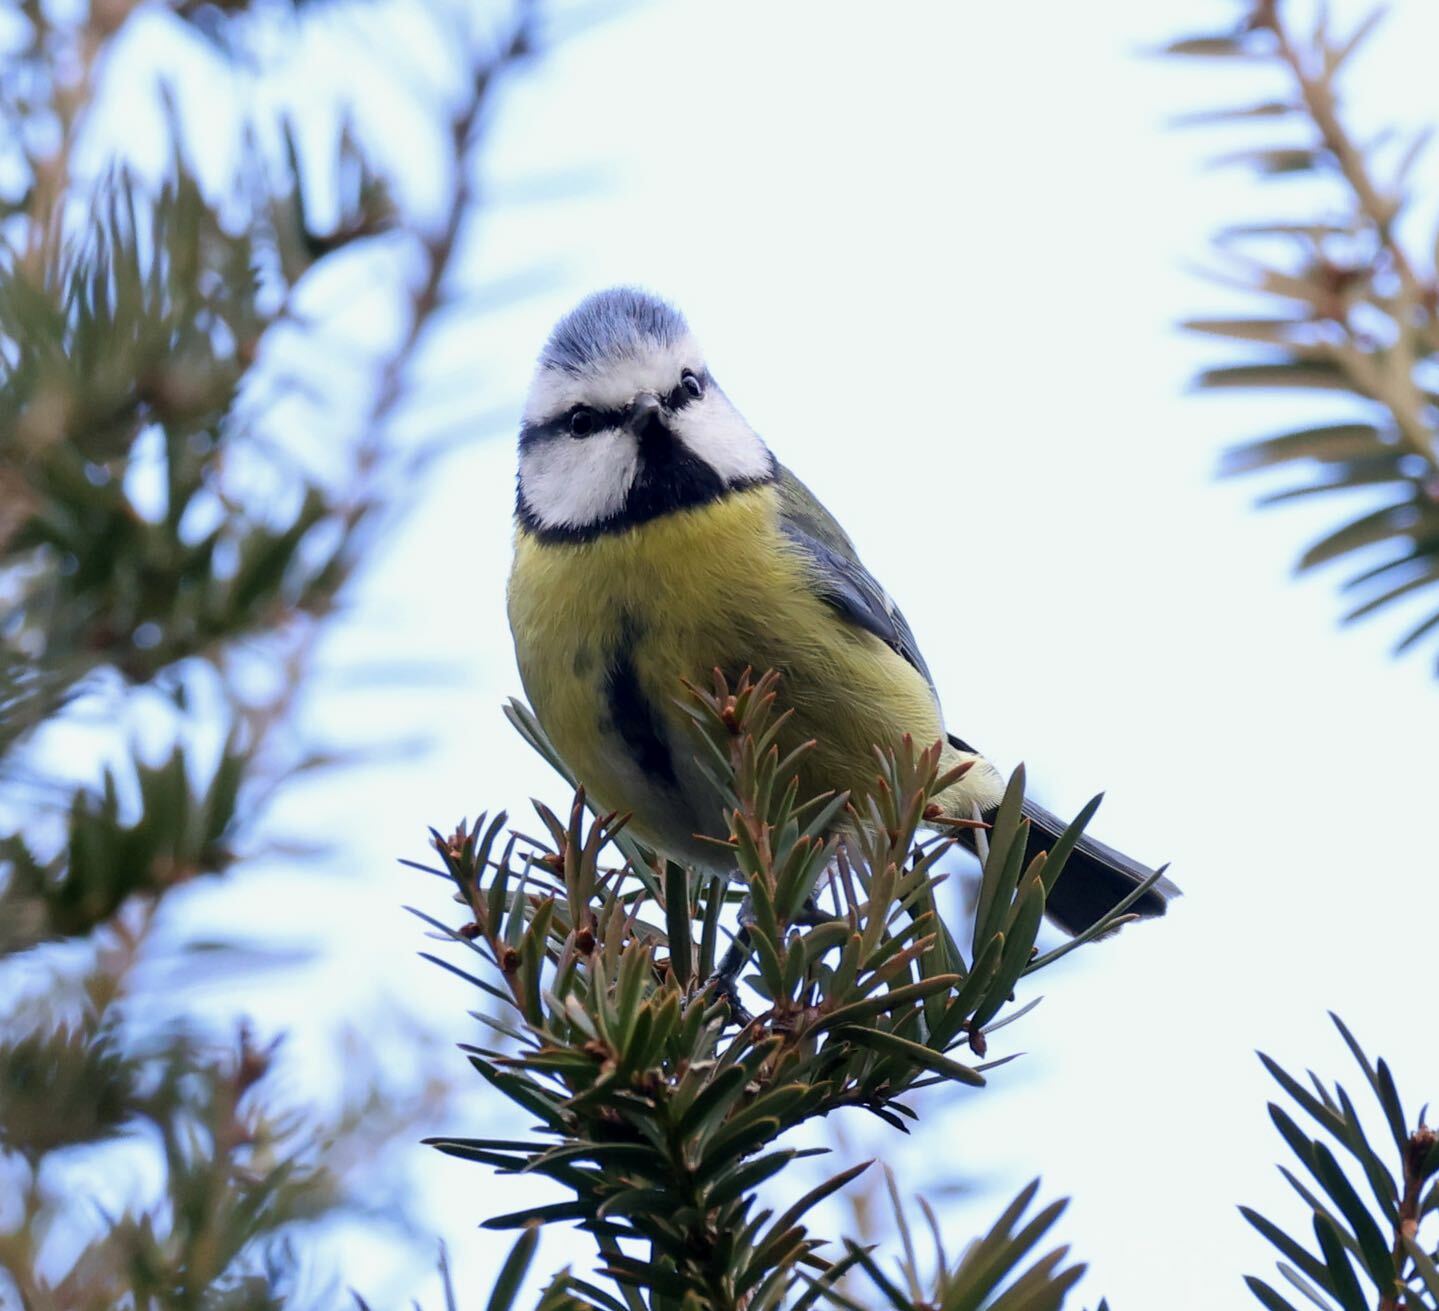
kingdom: Animalia
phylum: Chordata
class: Aves
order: Passeriformes
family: Paridae
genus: Cyanistes
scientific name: Cyanistes caeruleus
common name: Eurasian blue tit
